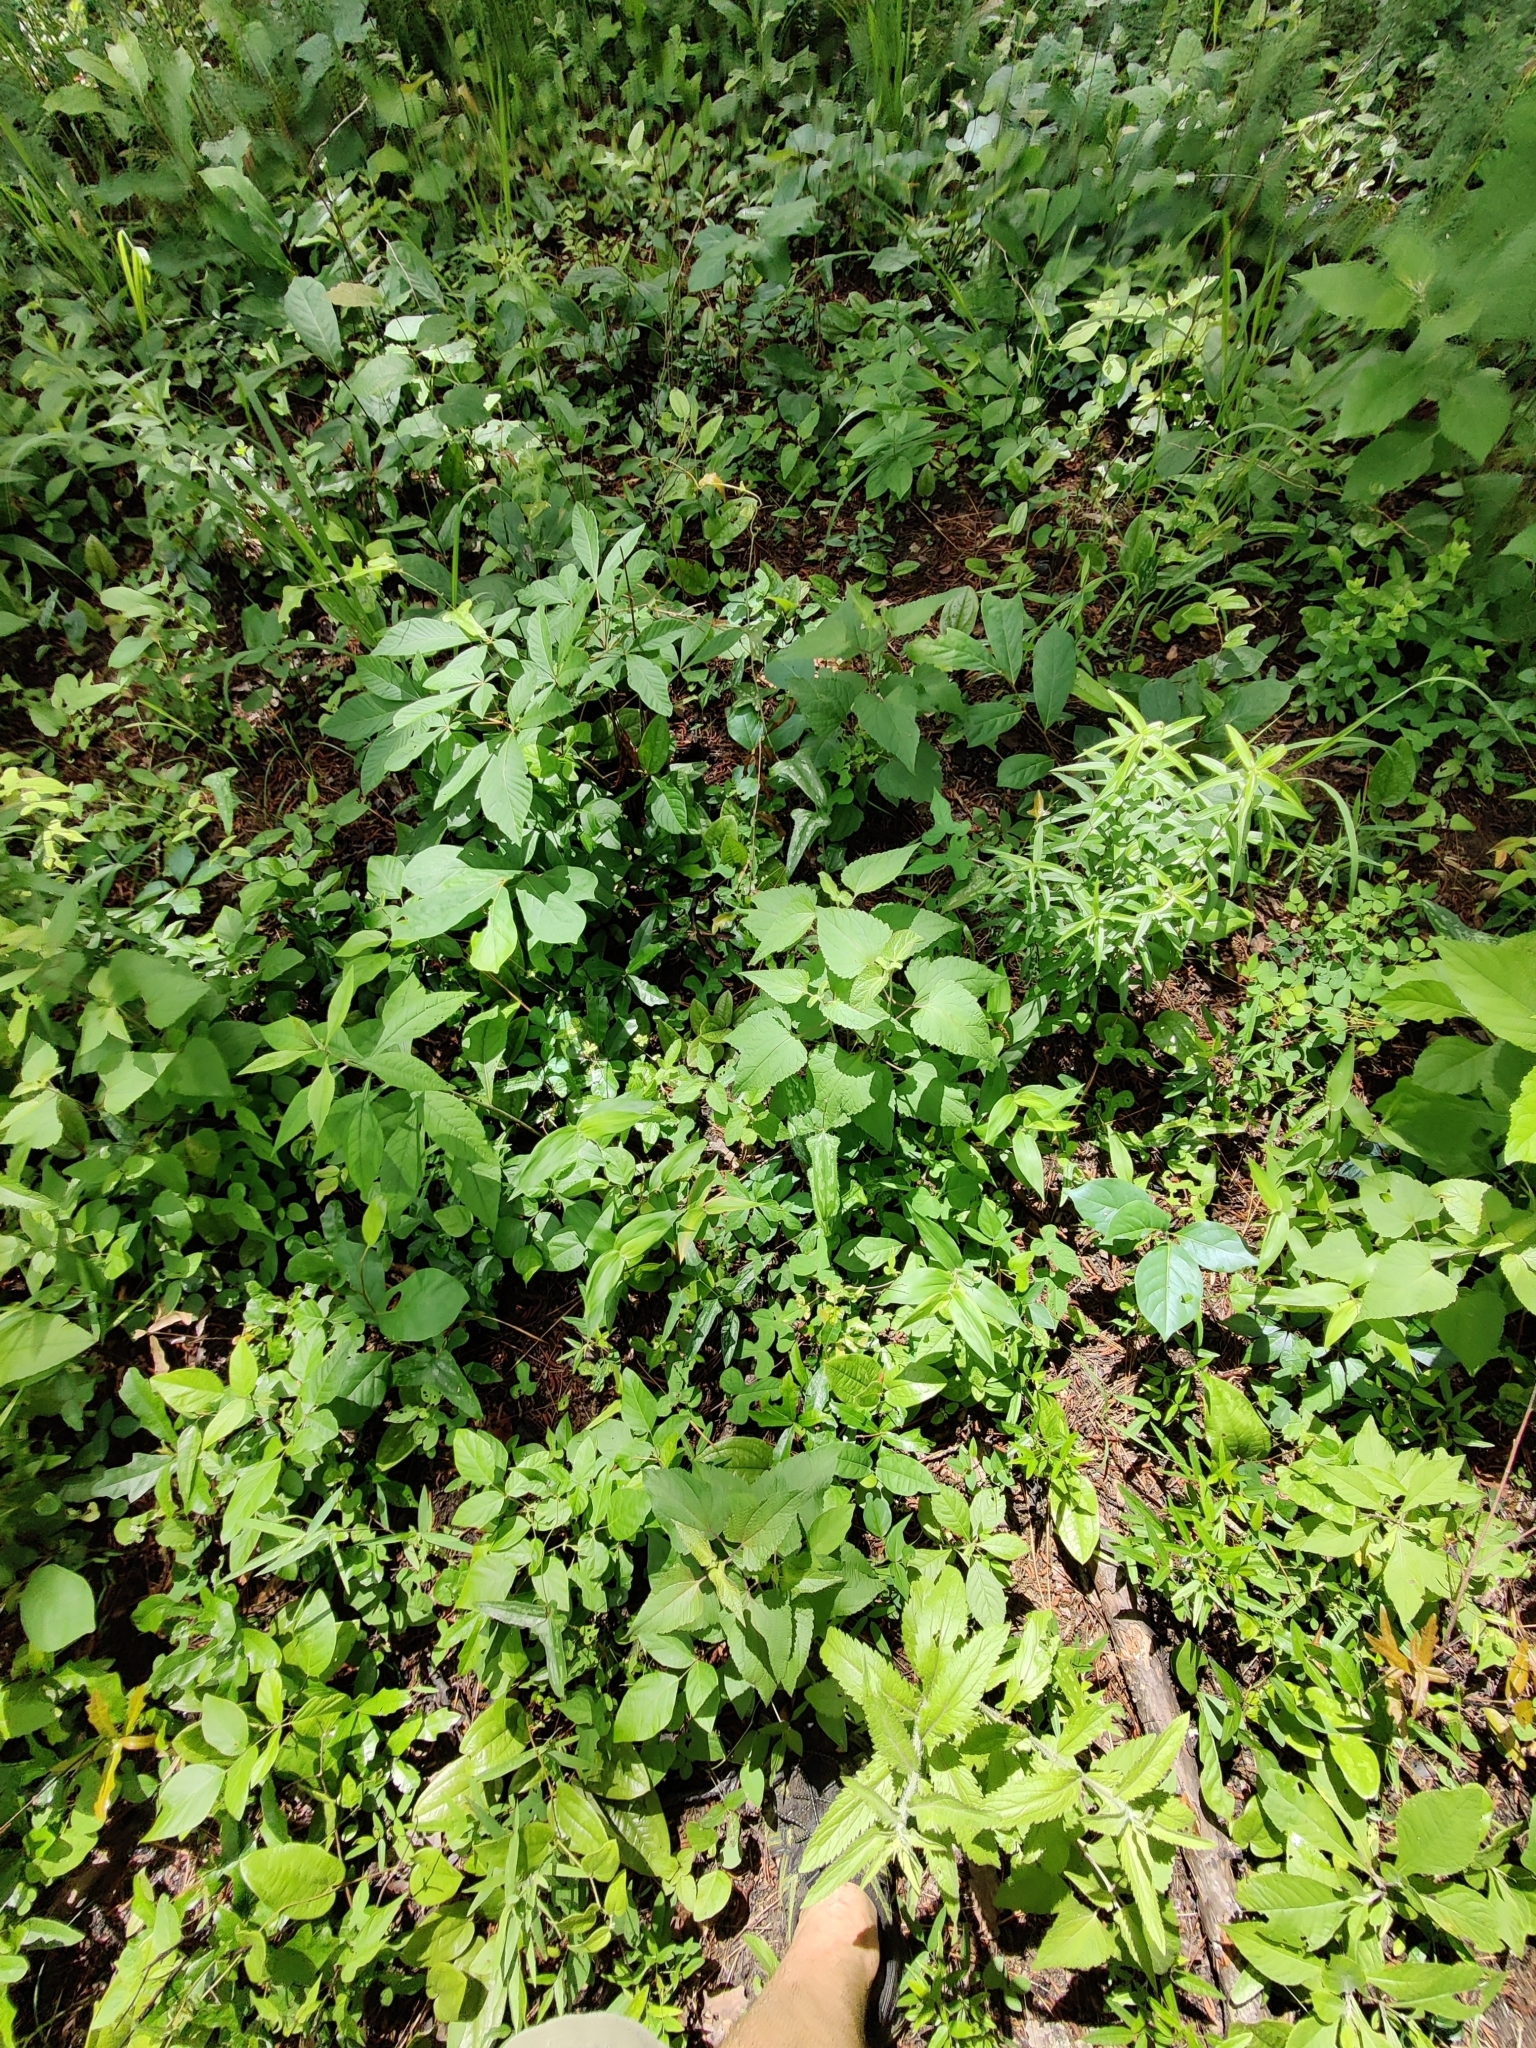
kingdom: Plantae
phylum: Tracheophyta
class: Magnoliopsida
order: Asterales
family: Asteraceae
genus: Brickellia
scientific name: Brickellia cordifolia
